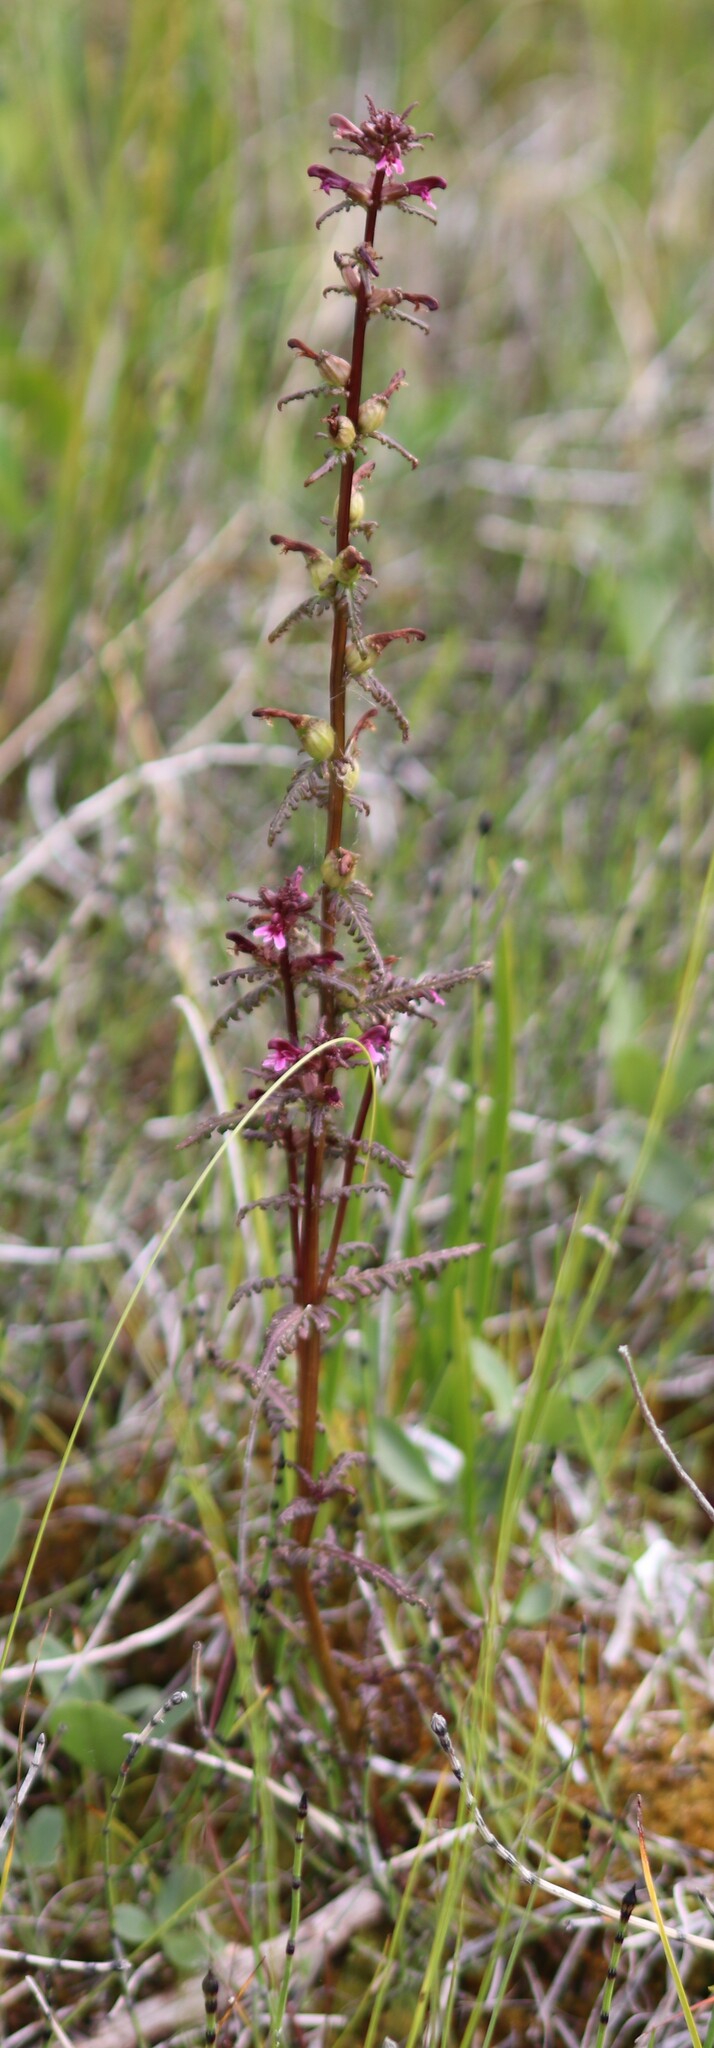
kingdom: Plantae
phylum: Tracheophyta
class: Magnoliopsida
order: Lamiales
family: Orobanchaceae
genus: Pedicularis
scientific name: Pedicularis parviflora
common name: Muskeg lousewort
